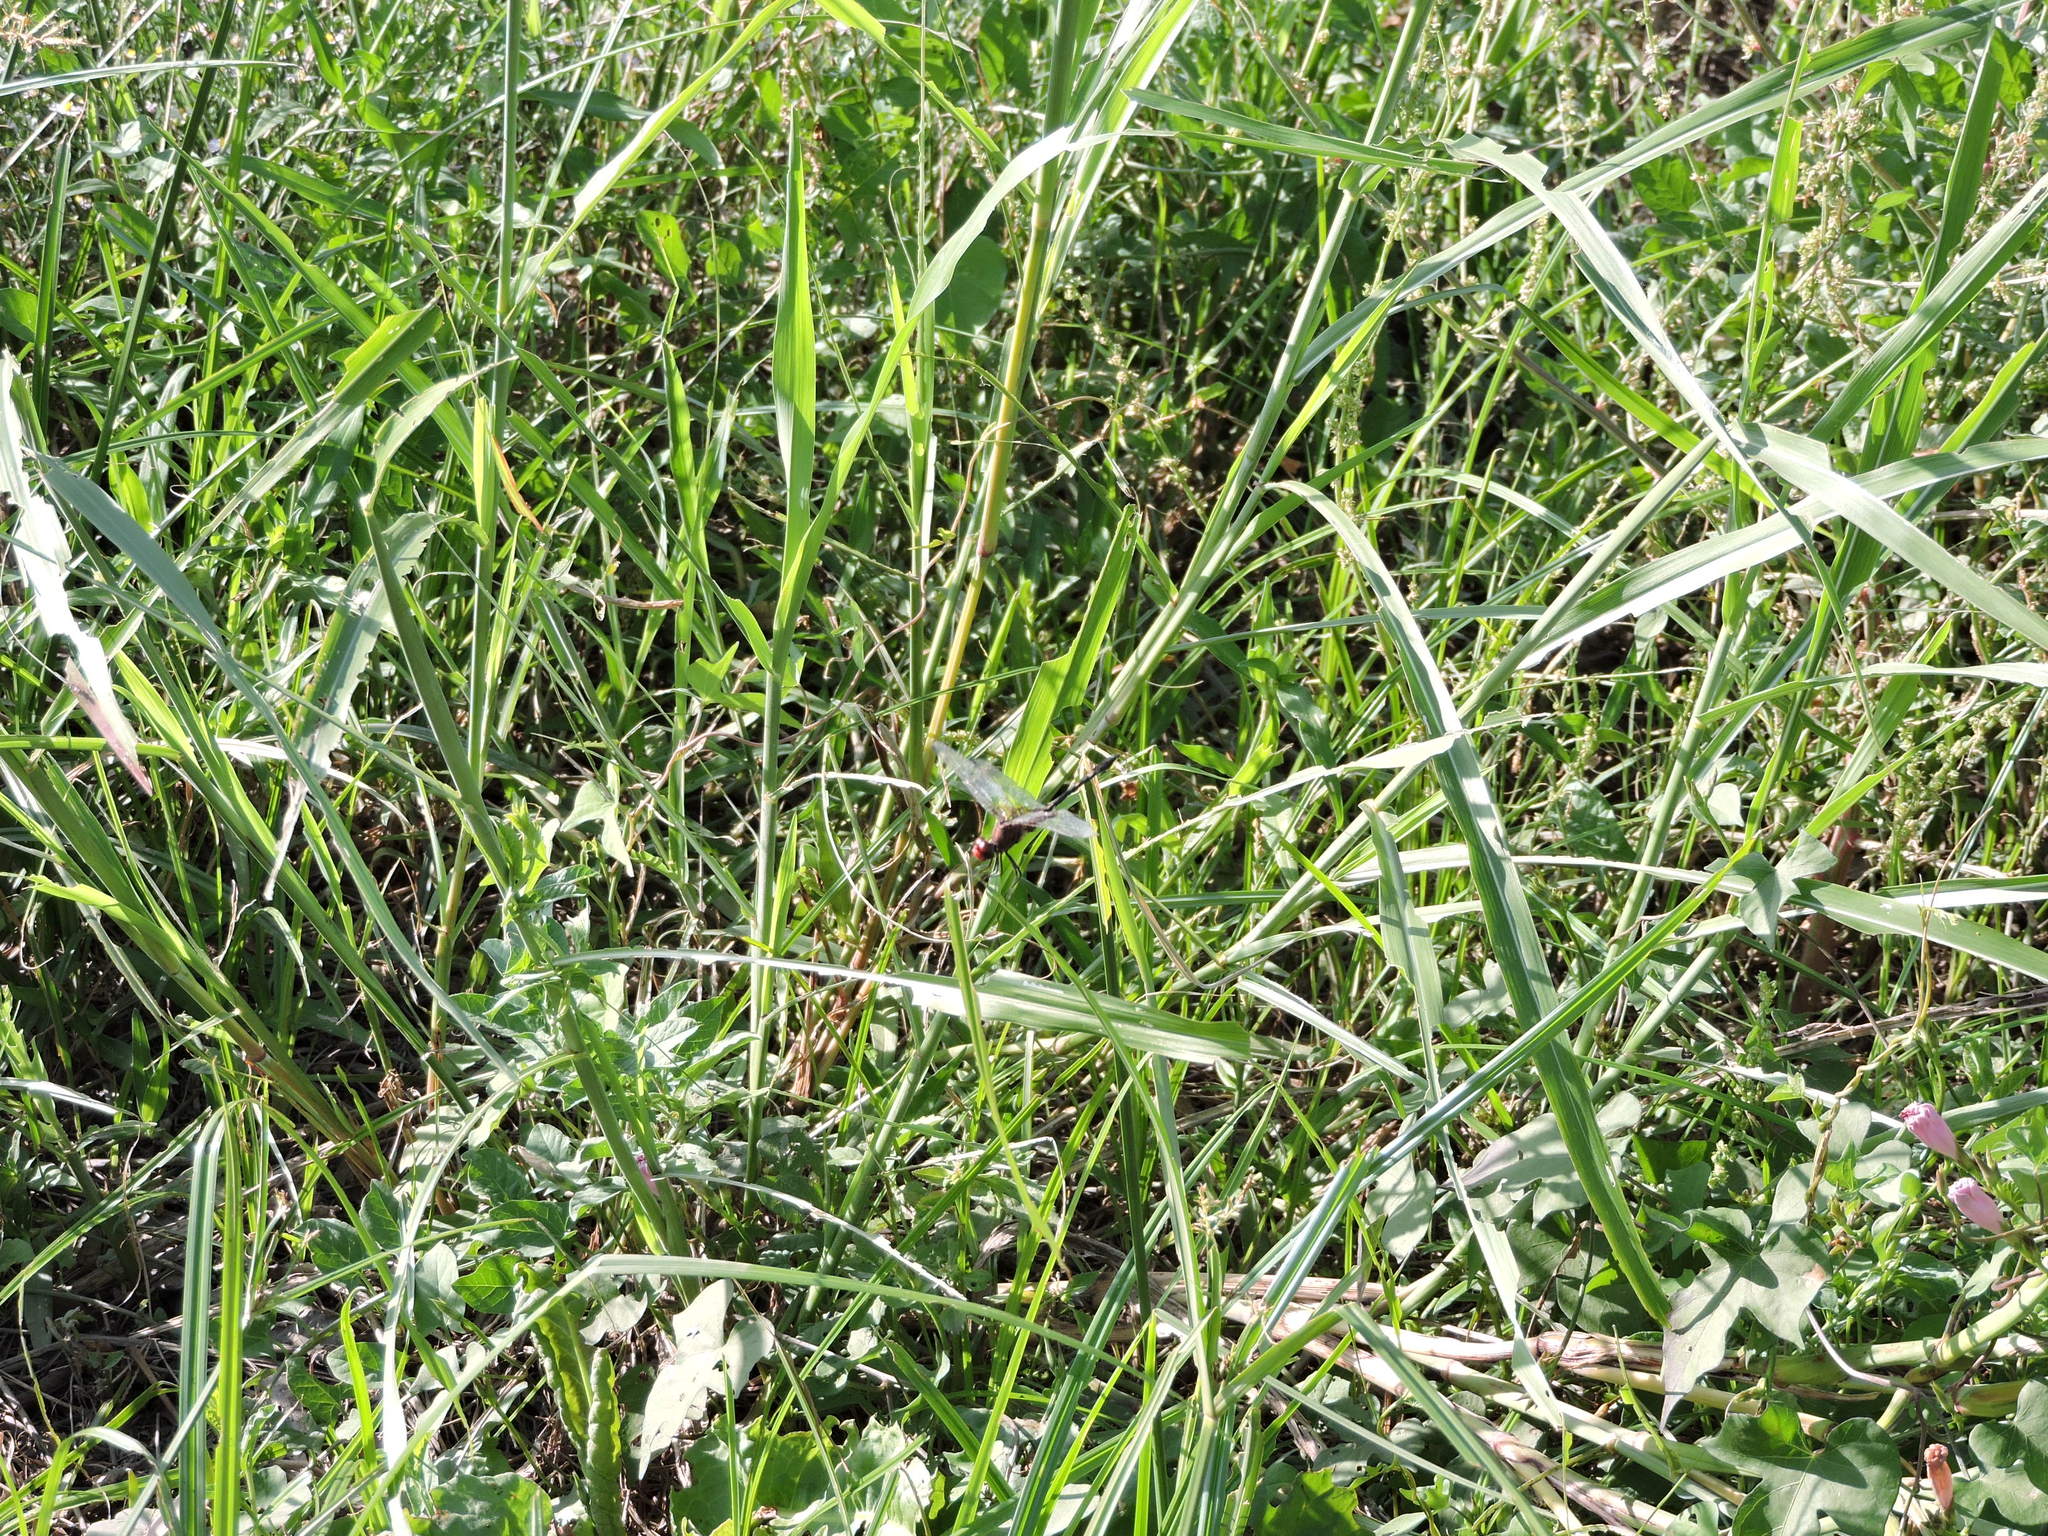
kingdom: Animalia
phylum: Arthropoda
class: Insecta
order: Odonata
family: Libellulidae
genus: Dythemis
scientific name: Dythemis fugax
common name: Checkered setwing
